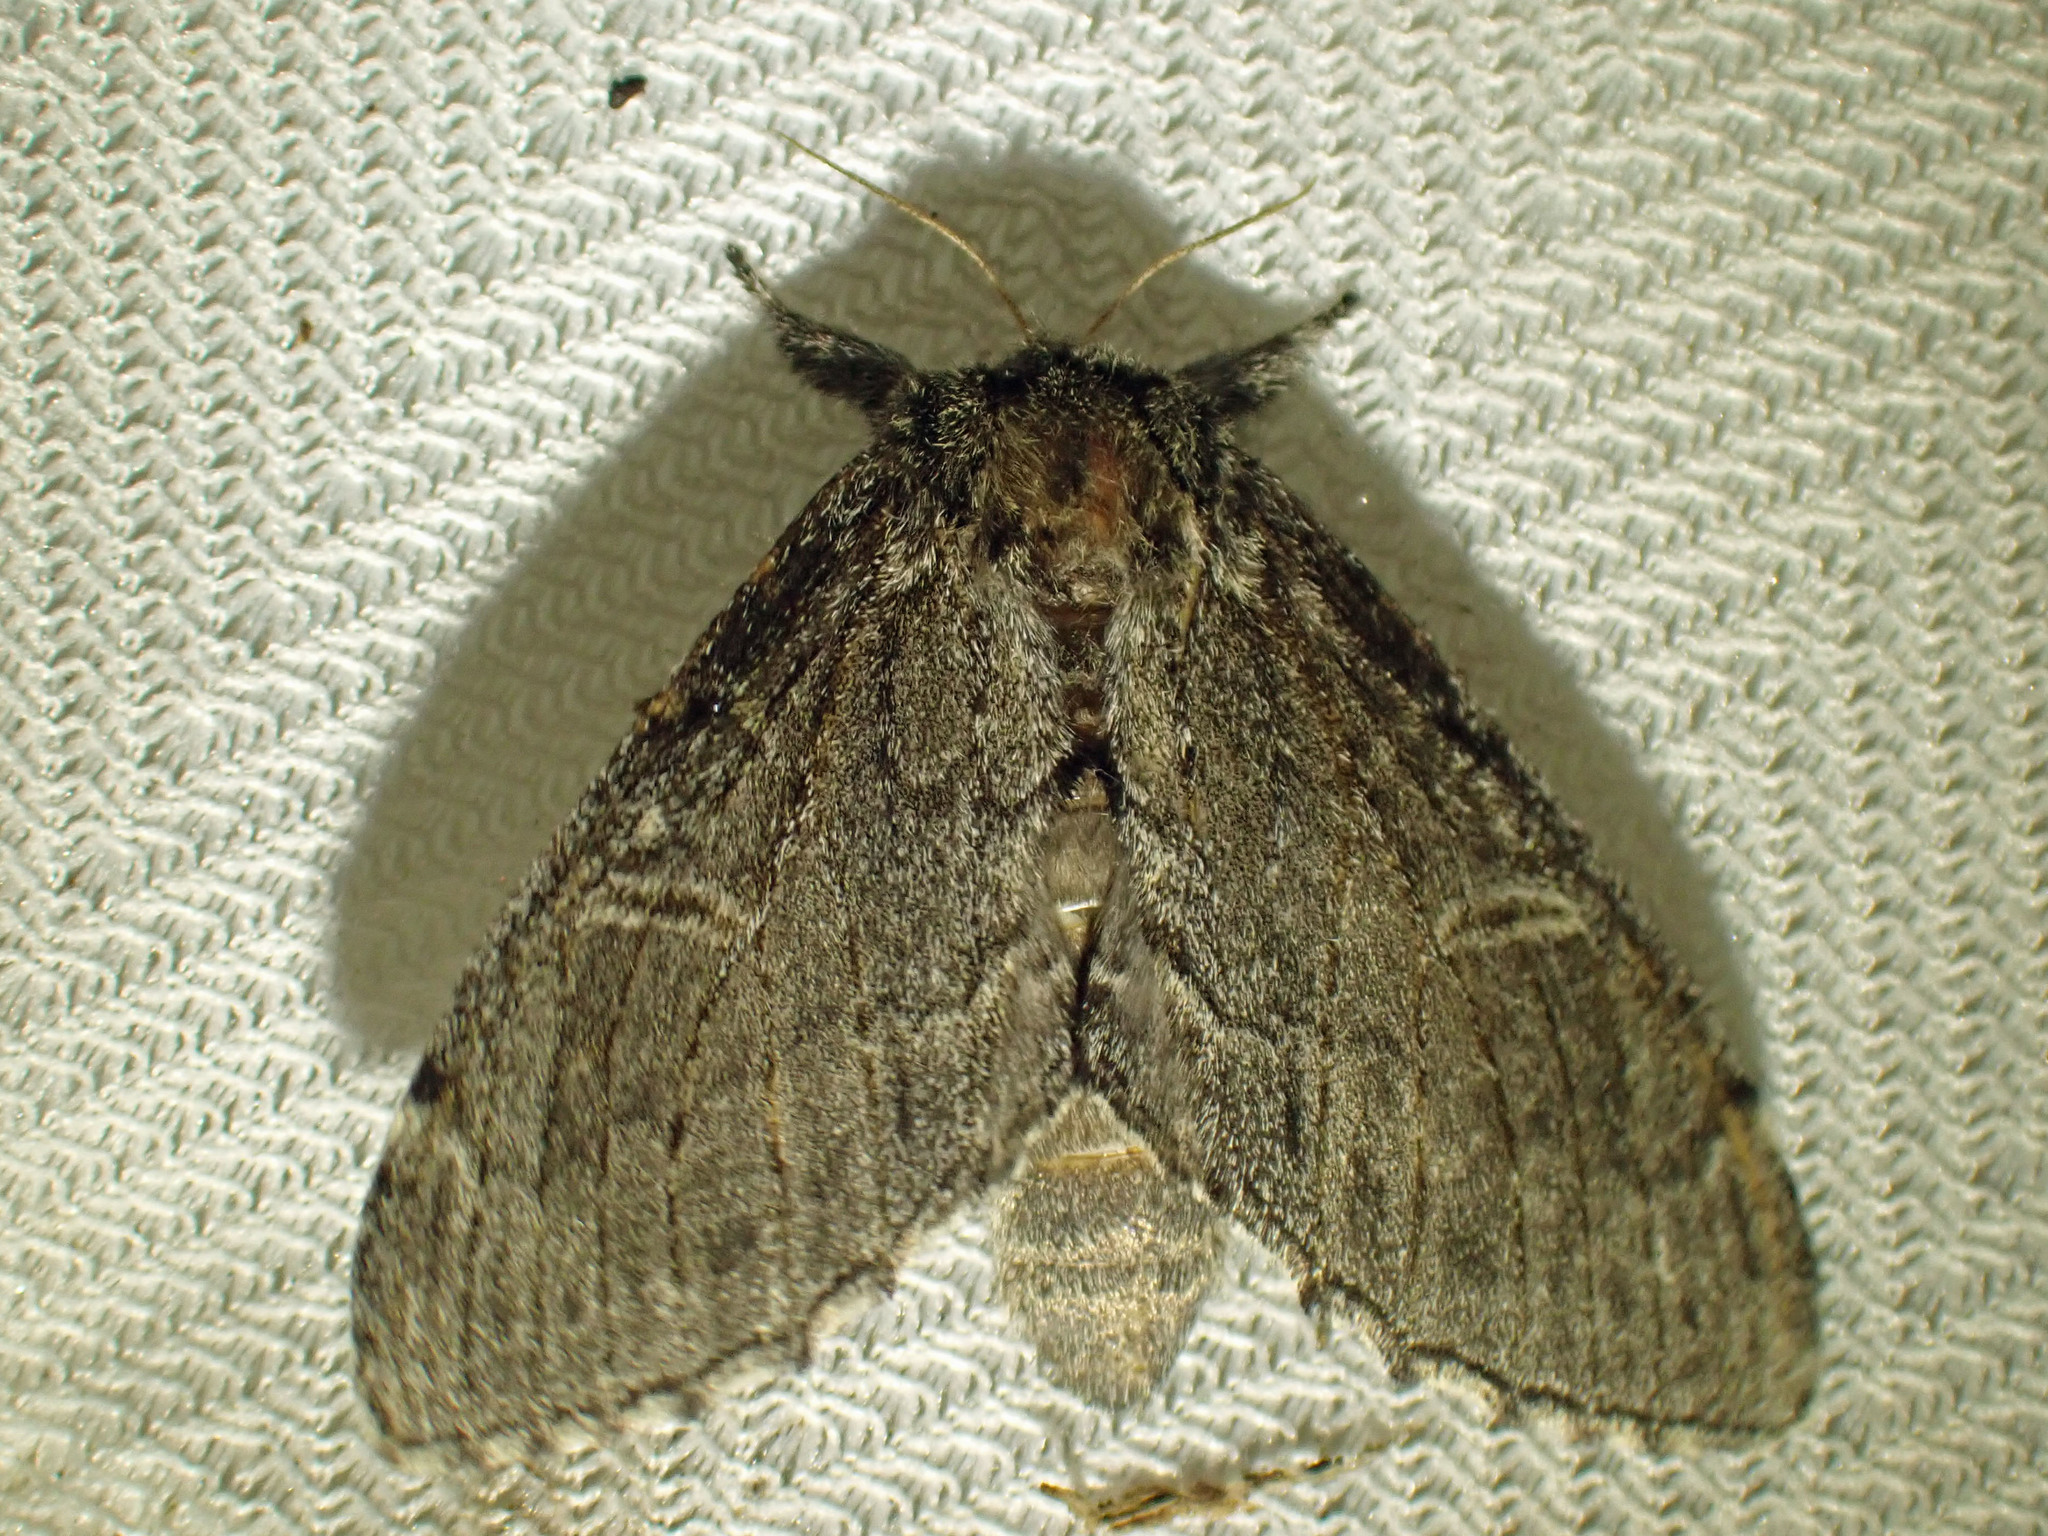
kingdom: Animalia
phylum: Arthropoda
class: Insecta
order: Lepidoptera
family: Notodontidae
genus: Notodonta
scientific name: Notodonta torva
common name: Large dark prominent
